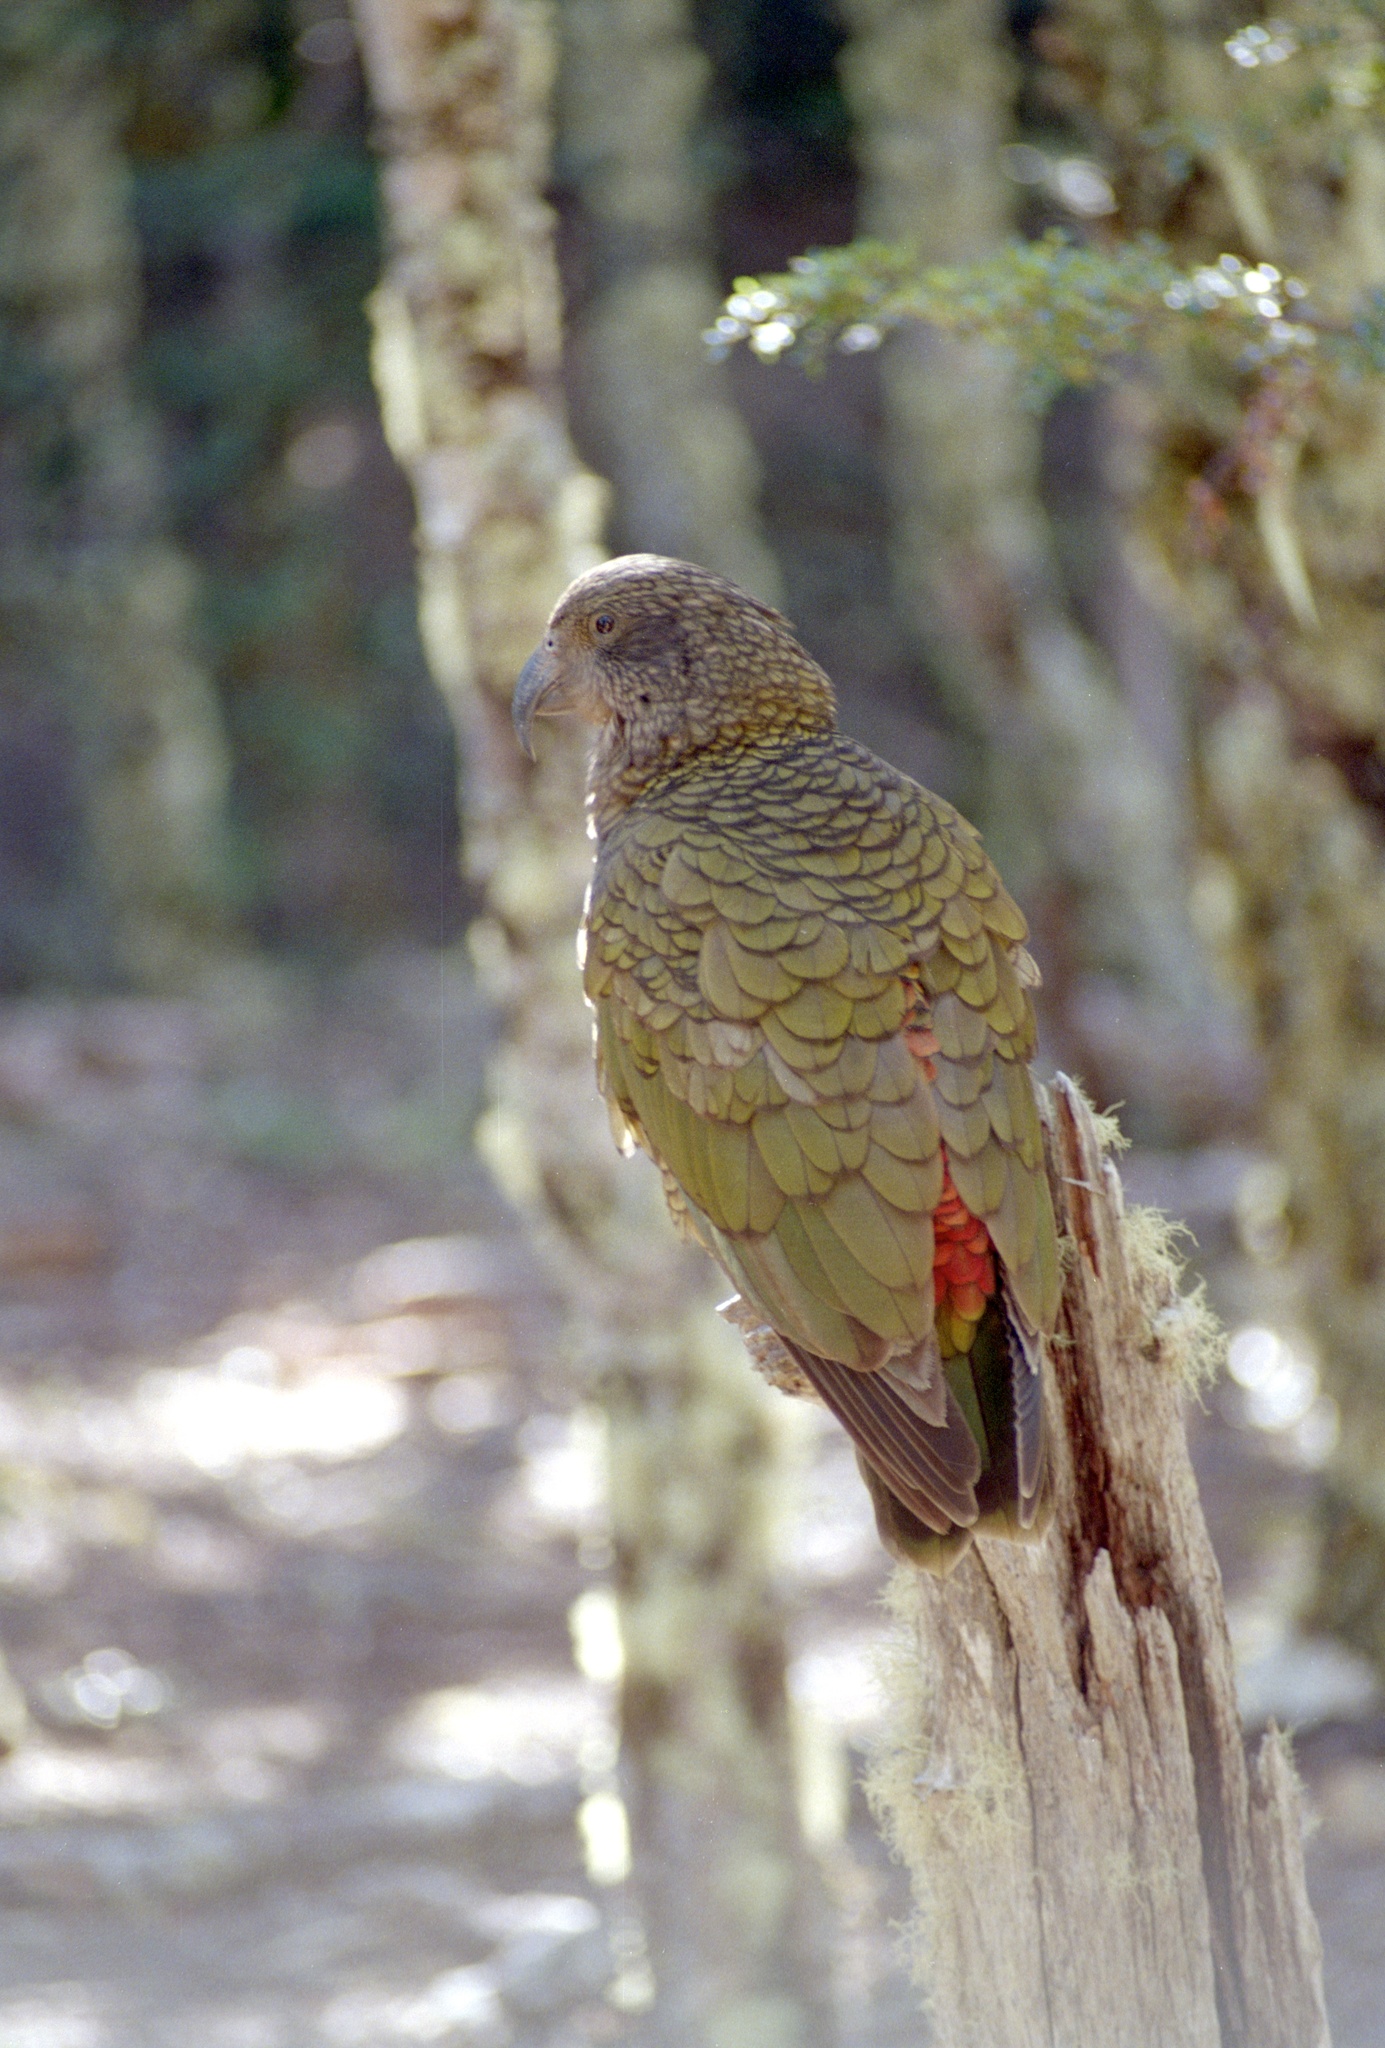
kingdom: Animalia
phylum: Chordata
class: Aves
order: Psittaciformes
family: Psittacidae
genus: Nestor
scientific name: Nestor notabilis
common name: Kea
